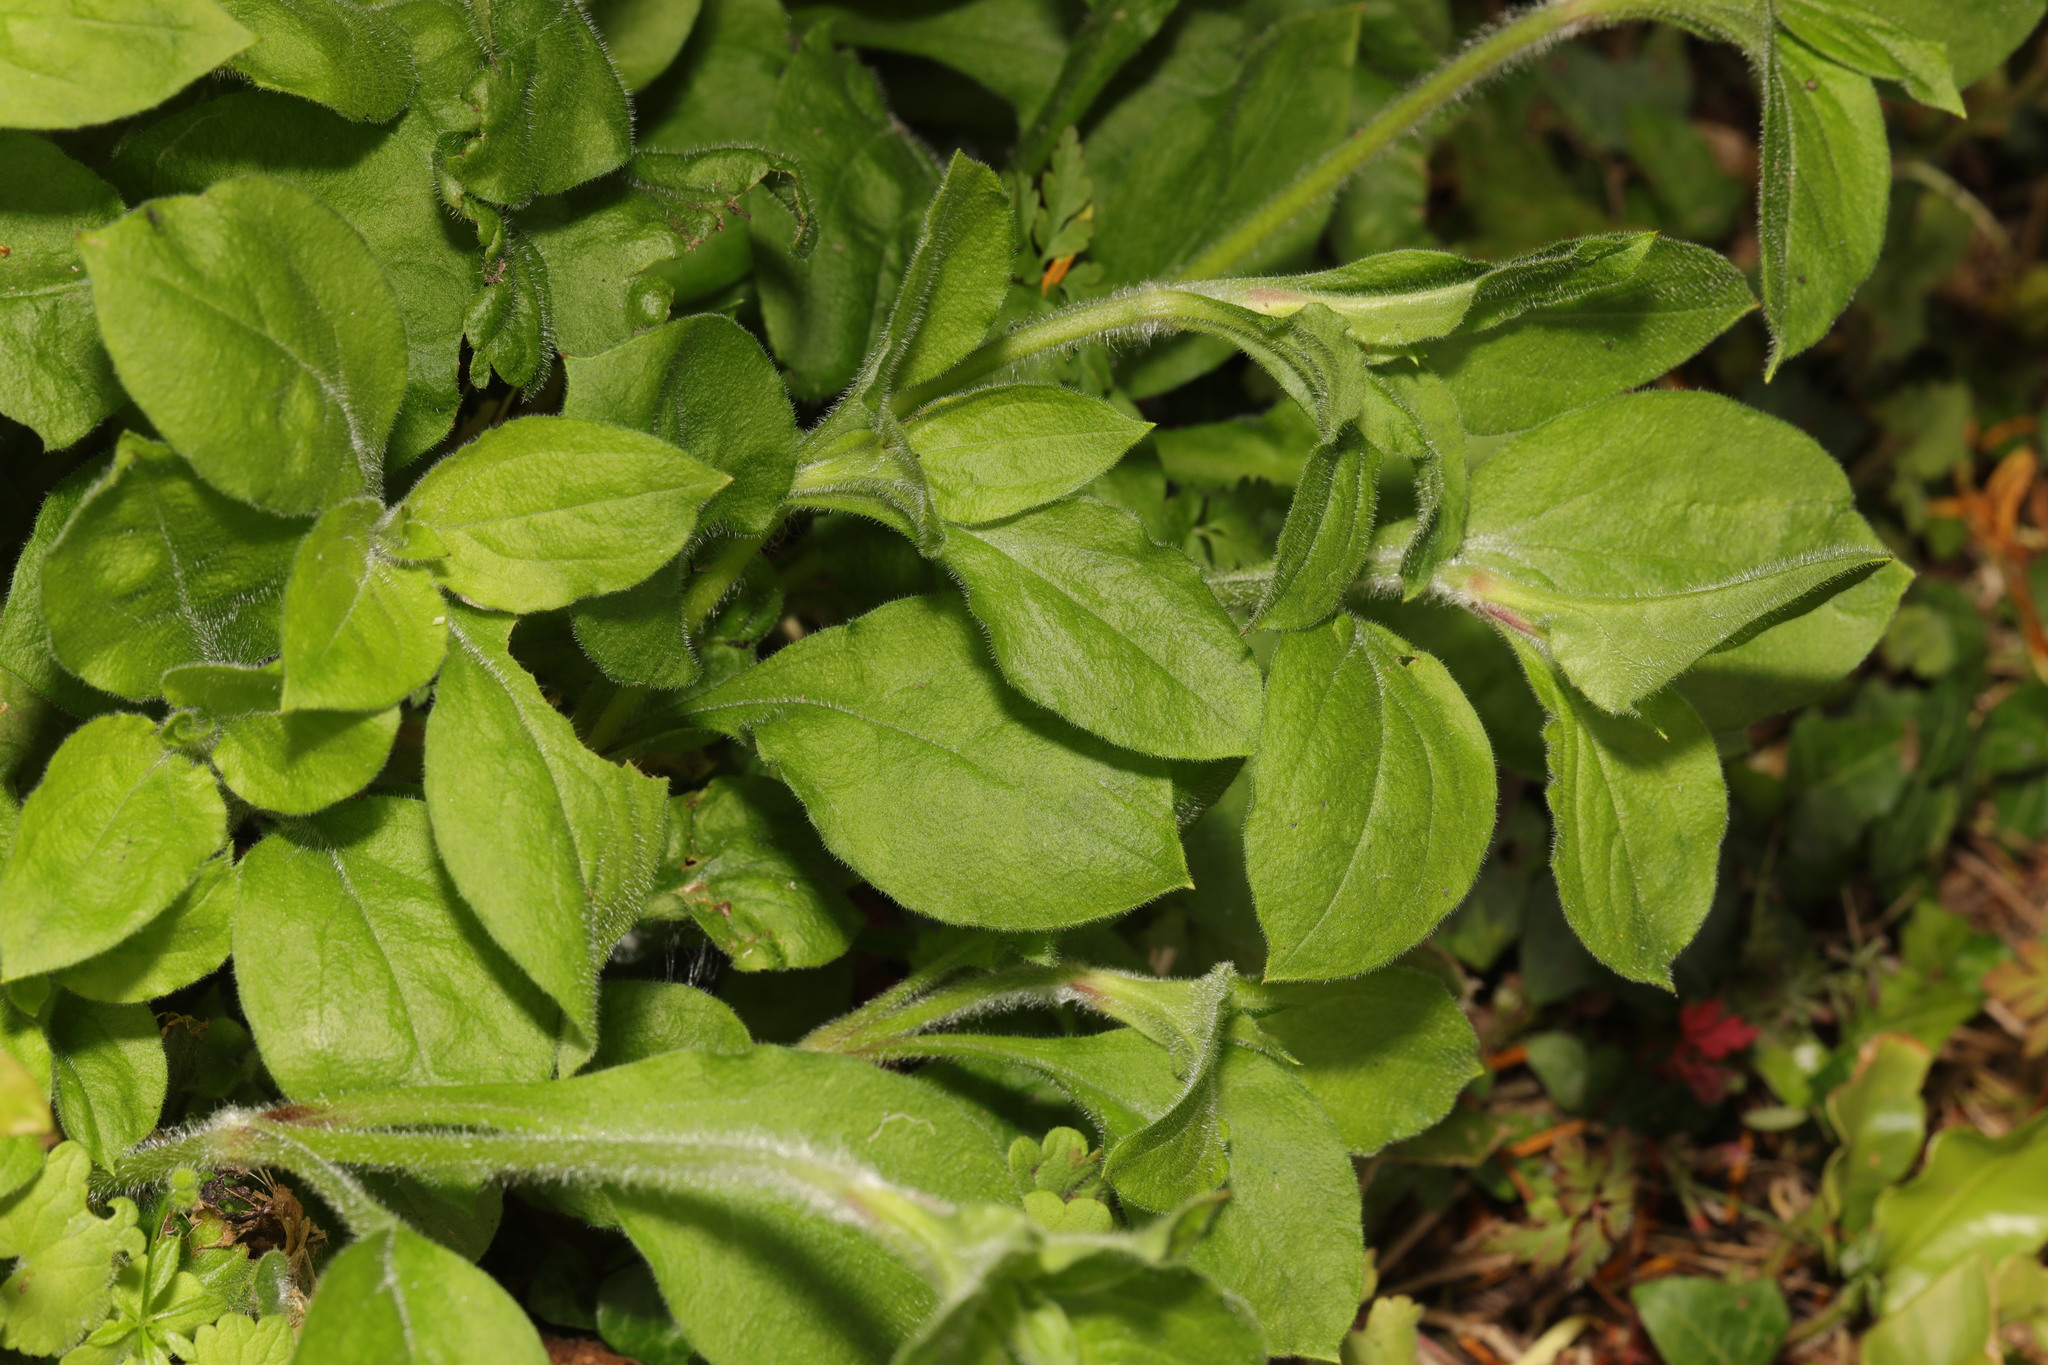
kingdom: Plantae
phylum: Tracheophyta
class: Magnoliopsida
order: Caryophyllales
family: Caryophyllaceae
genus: Silene
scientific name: Silene dioica
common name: Red campion
